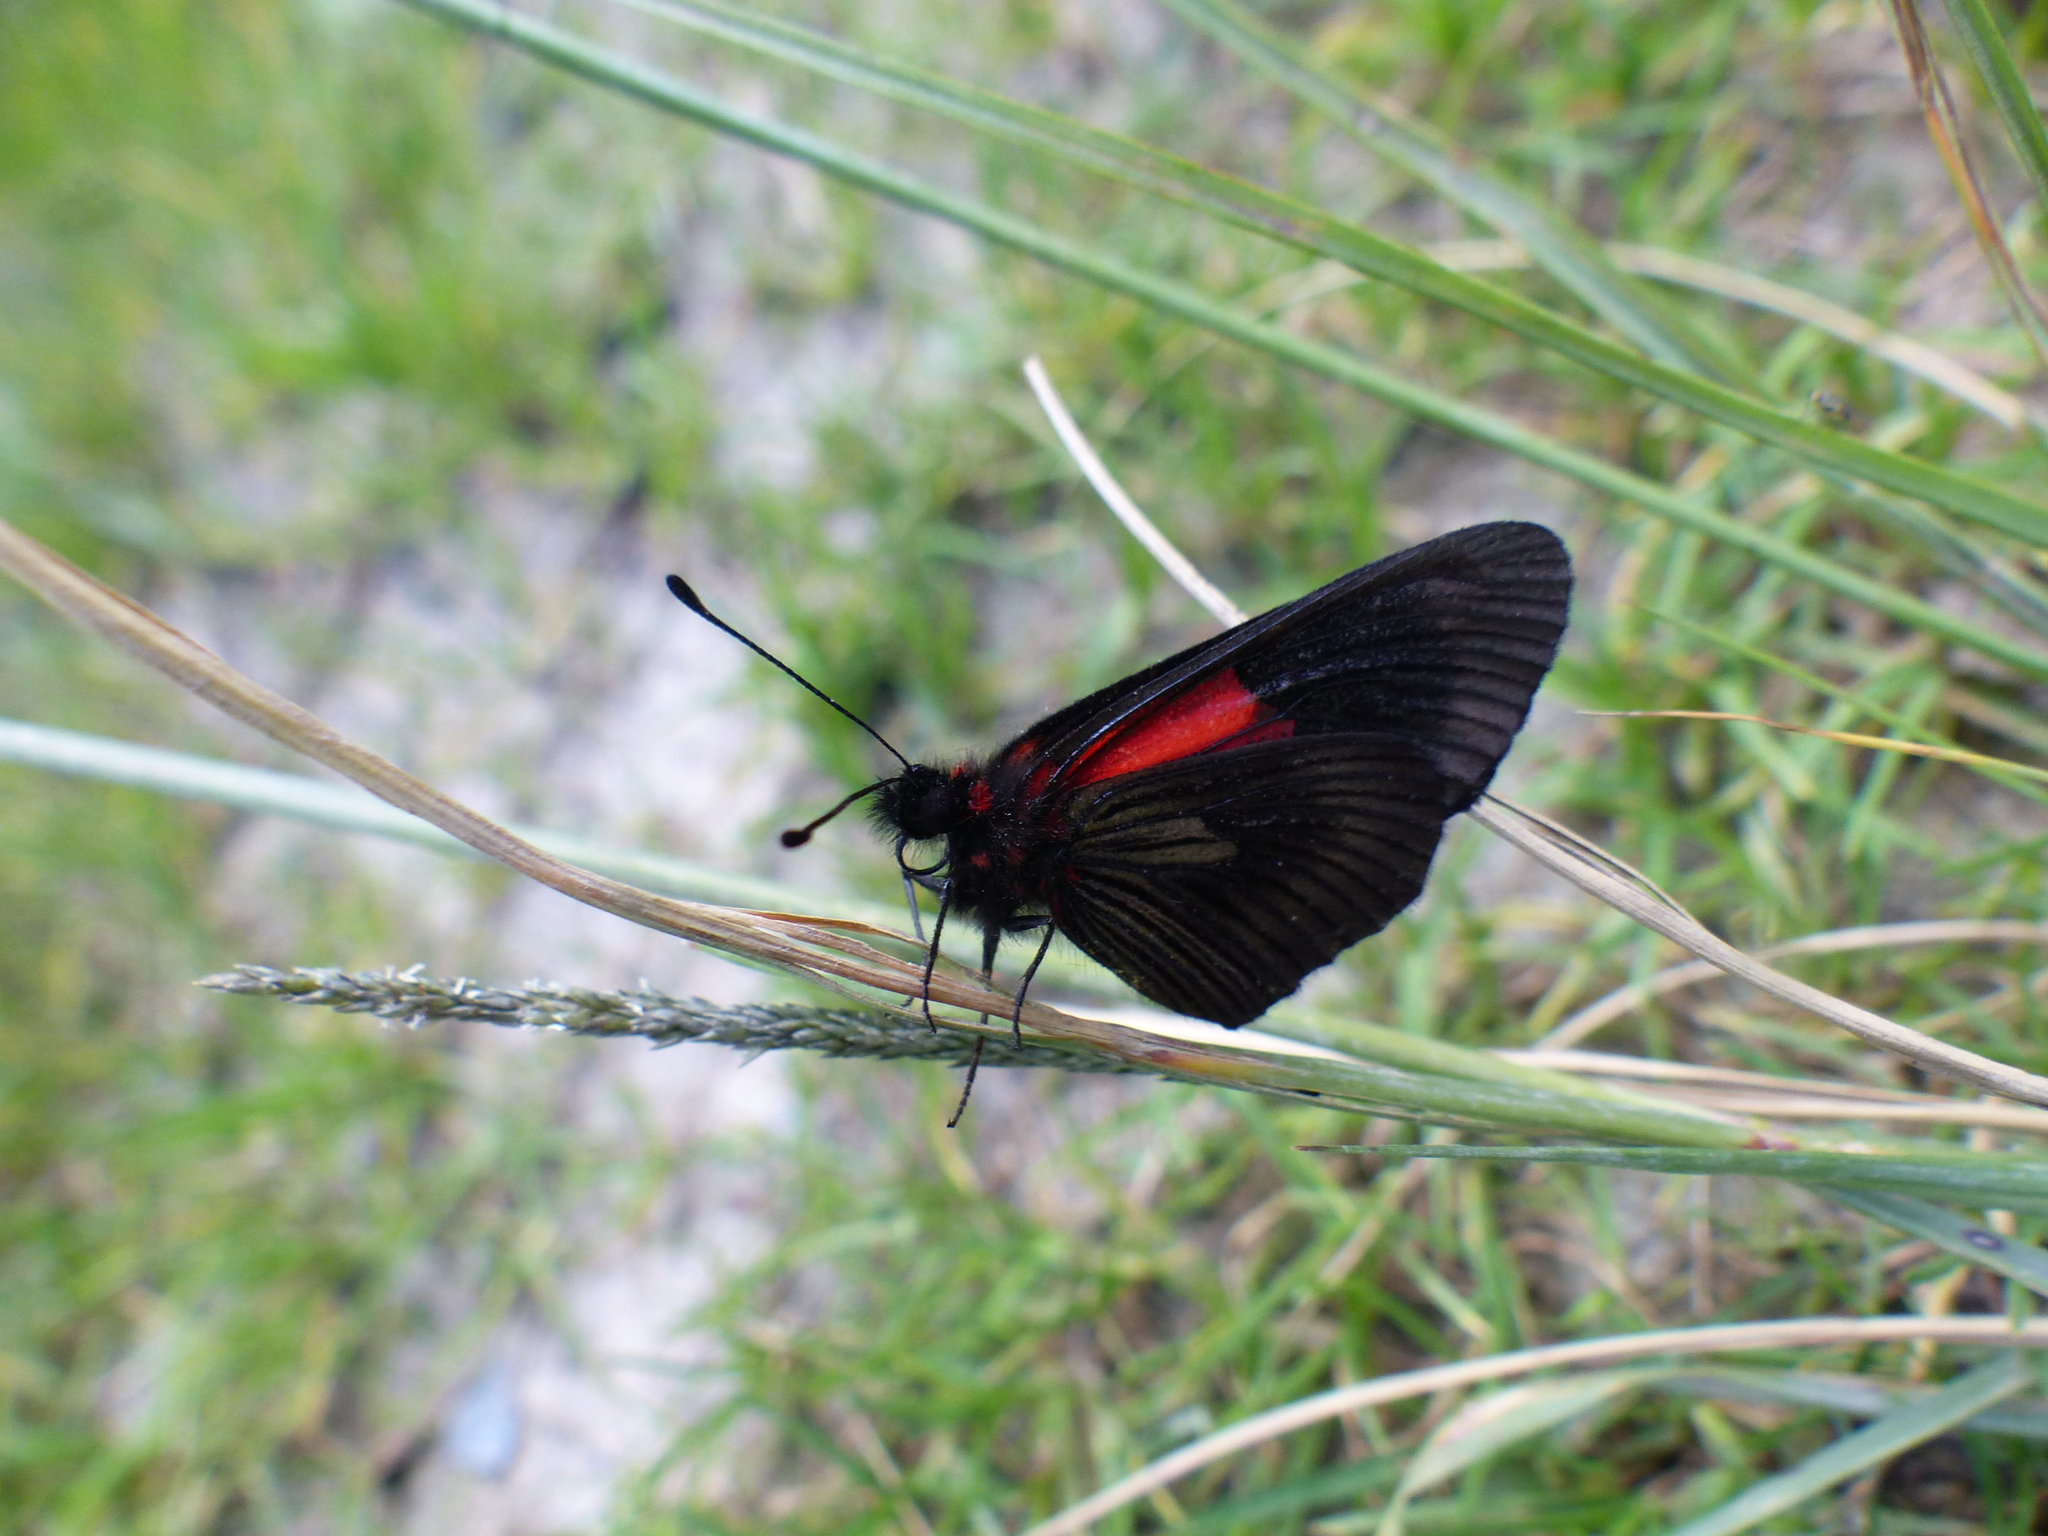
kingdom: Animalia
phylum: Arthropoda
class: Insecta
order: Lepidoptera
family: Nymphalidae
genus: Acraea
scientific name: Acraea Altinote ozomene
